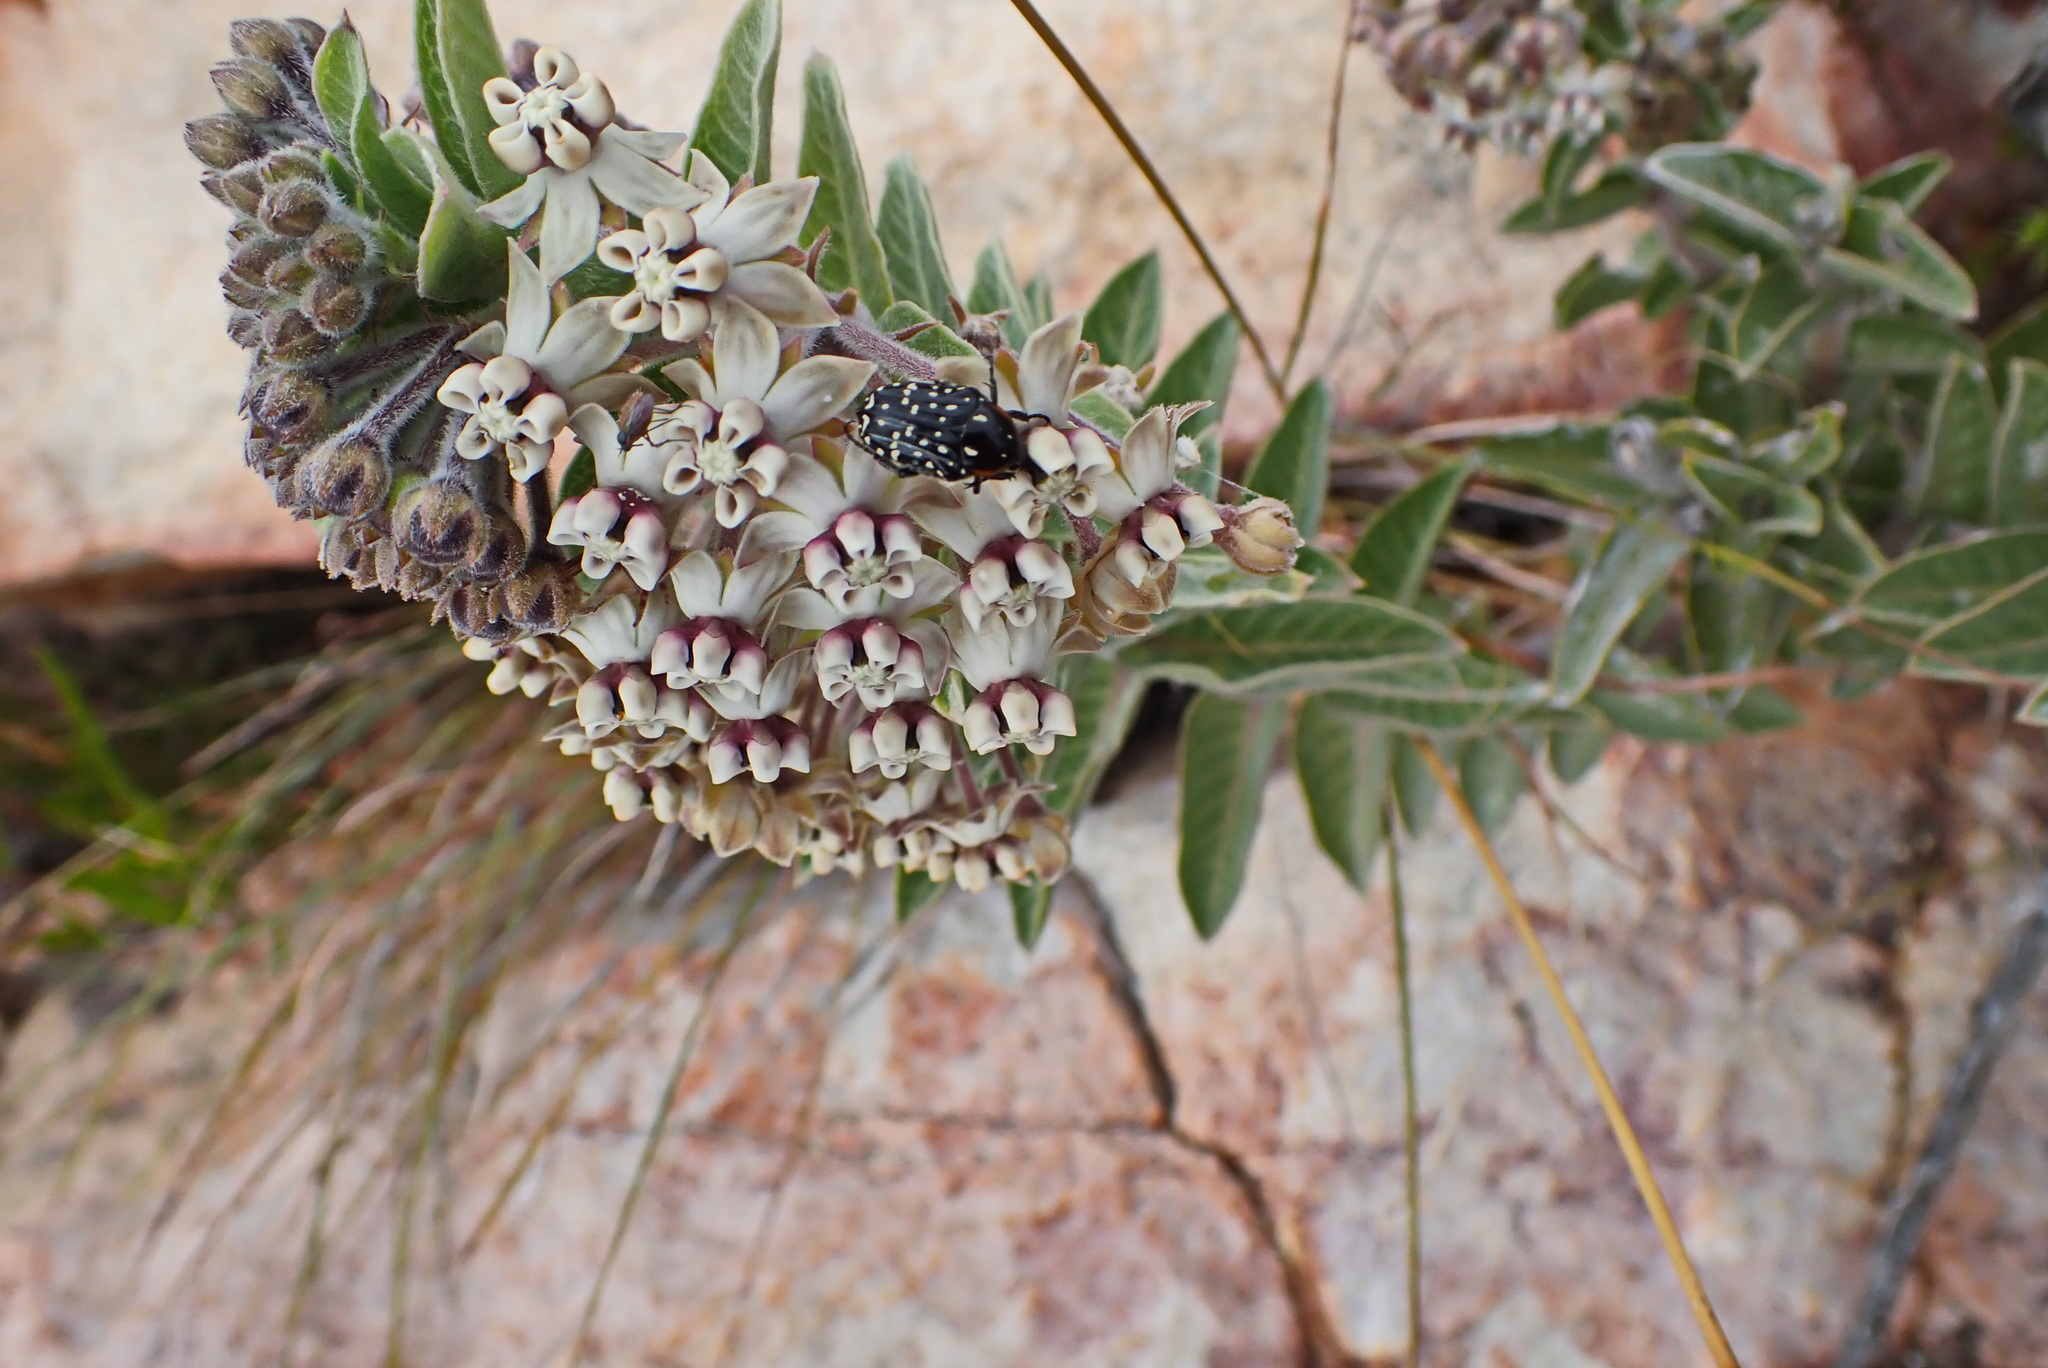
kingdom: Plantae
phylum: Tracheophyta
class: Magnoliopsida
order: Gentianales
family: Apocynaceae
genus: Gomphocarpus
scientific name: Gomphocarpus cancellatus
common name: Wild cotton
